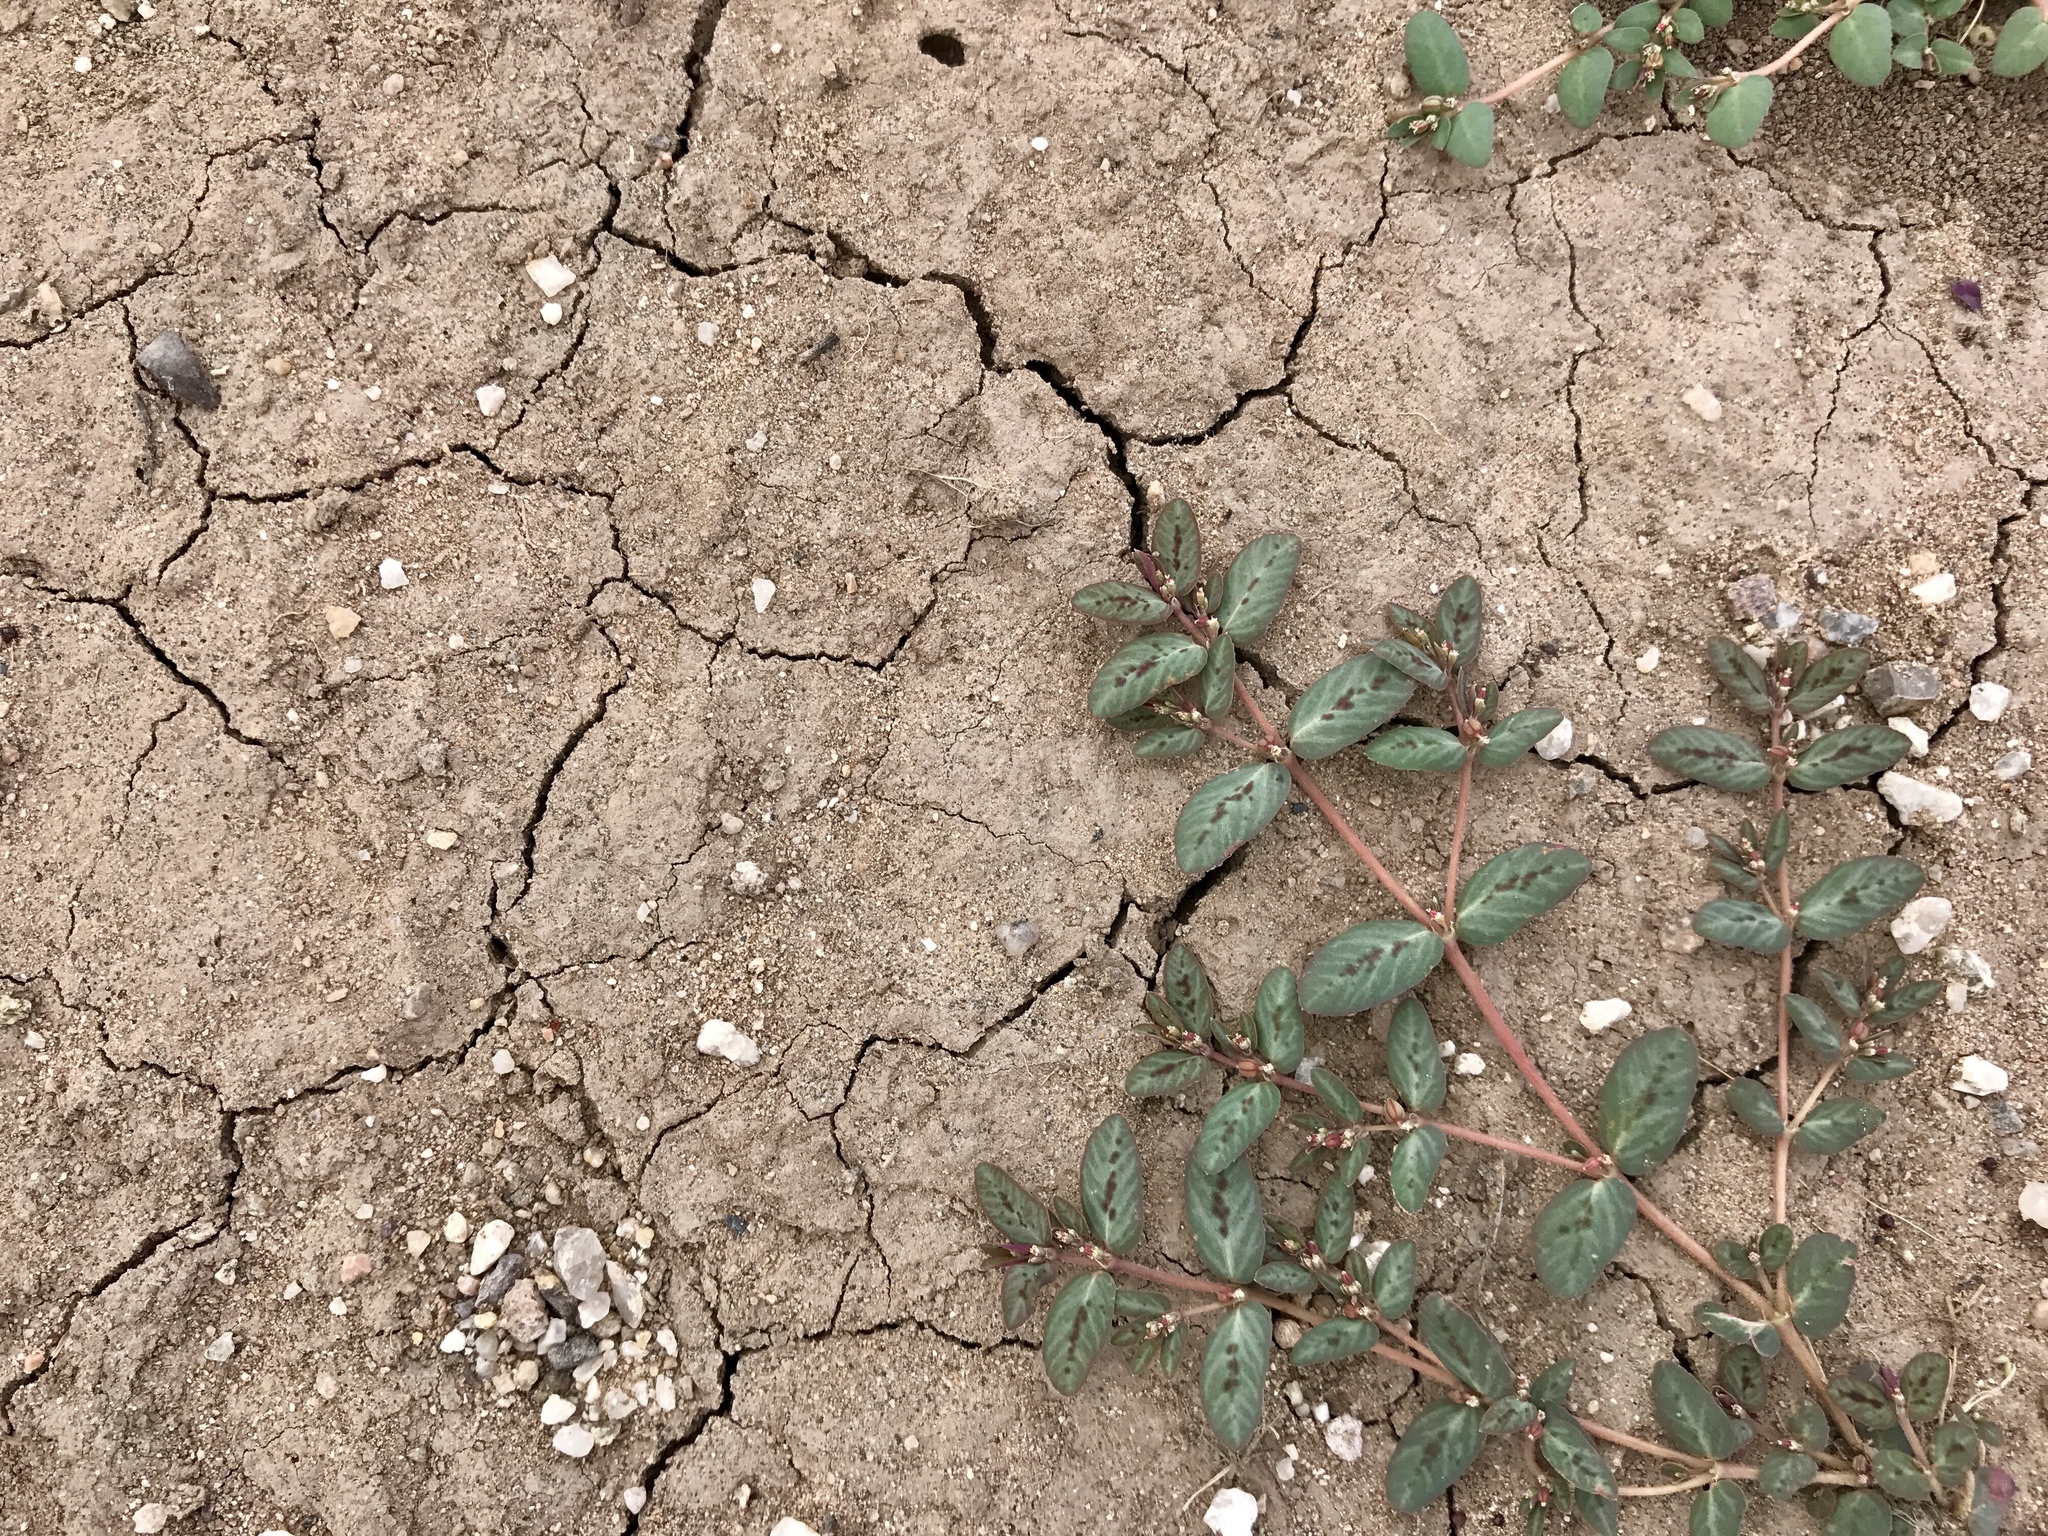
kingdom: Plantae
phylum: Tracheophyta
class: Magnoliopsida
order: Malpighiales
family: Euphorbiaceae
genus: Euphorbia
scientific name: Euphorbia abramsiana
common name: Abram's spurge
